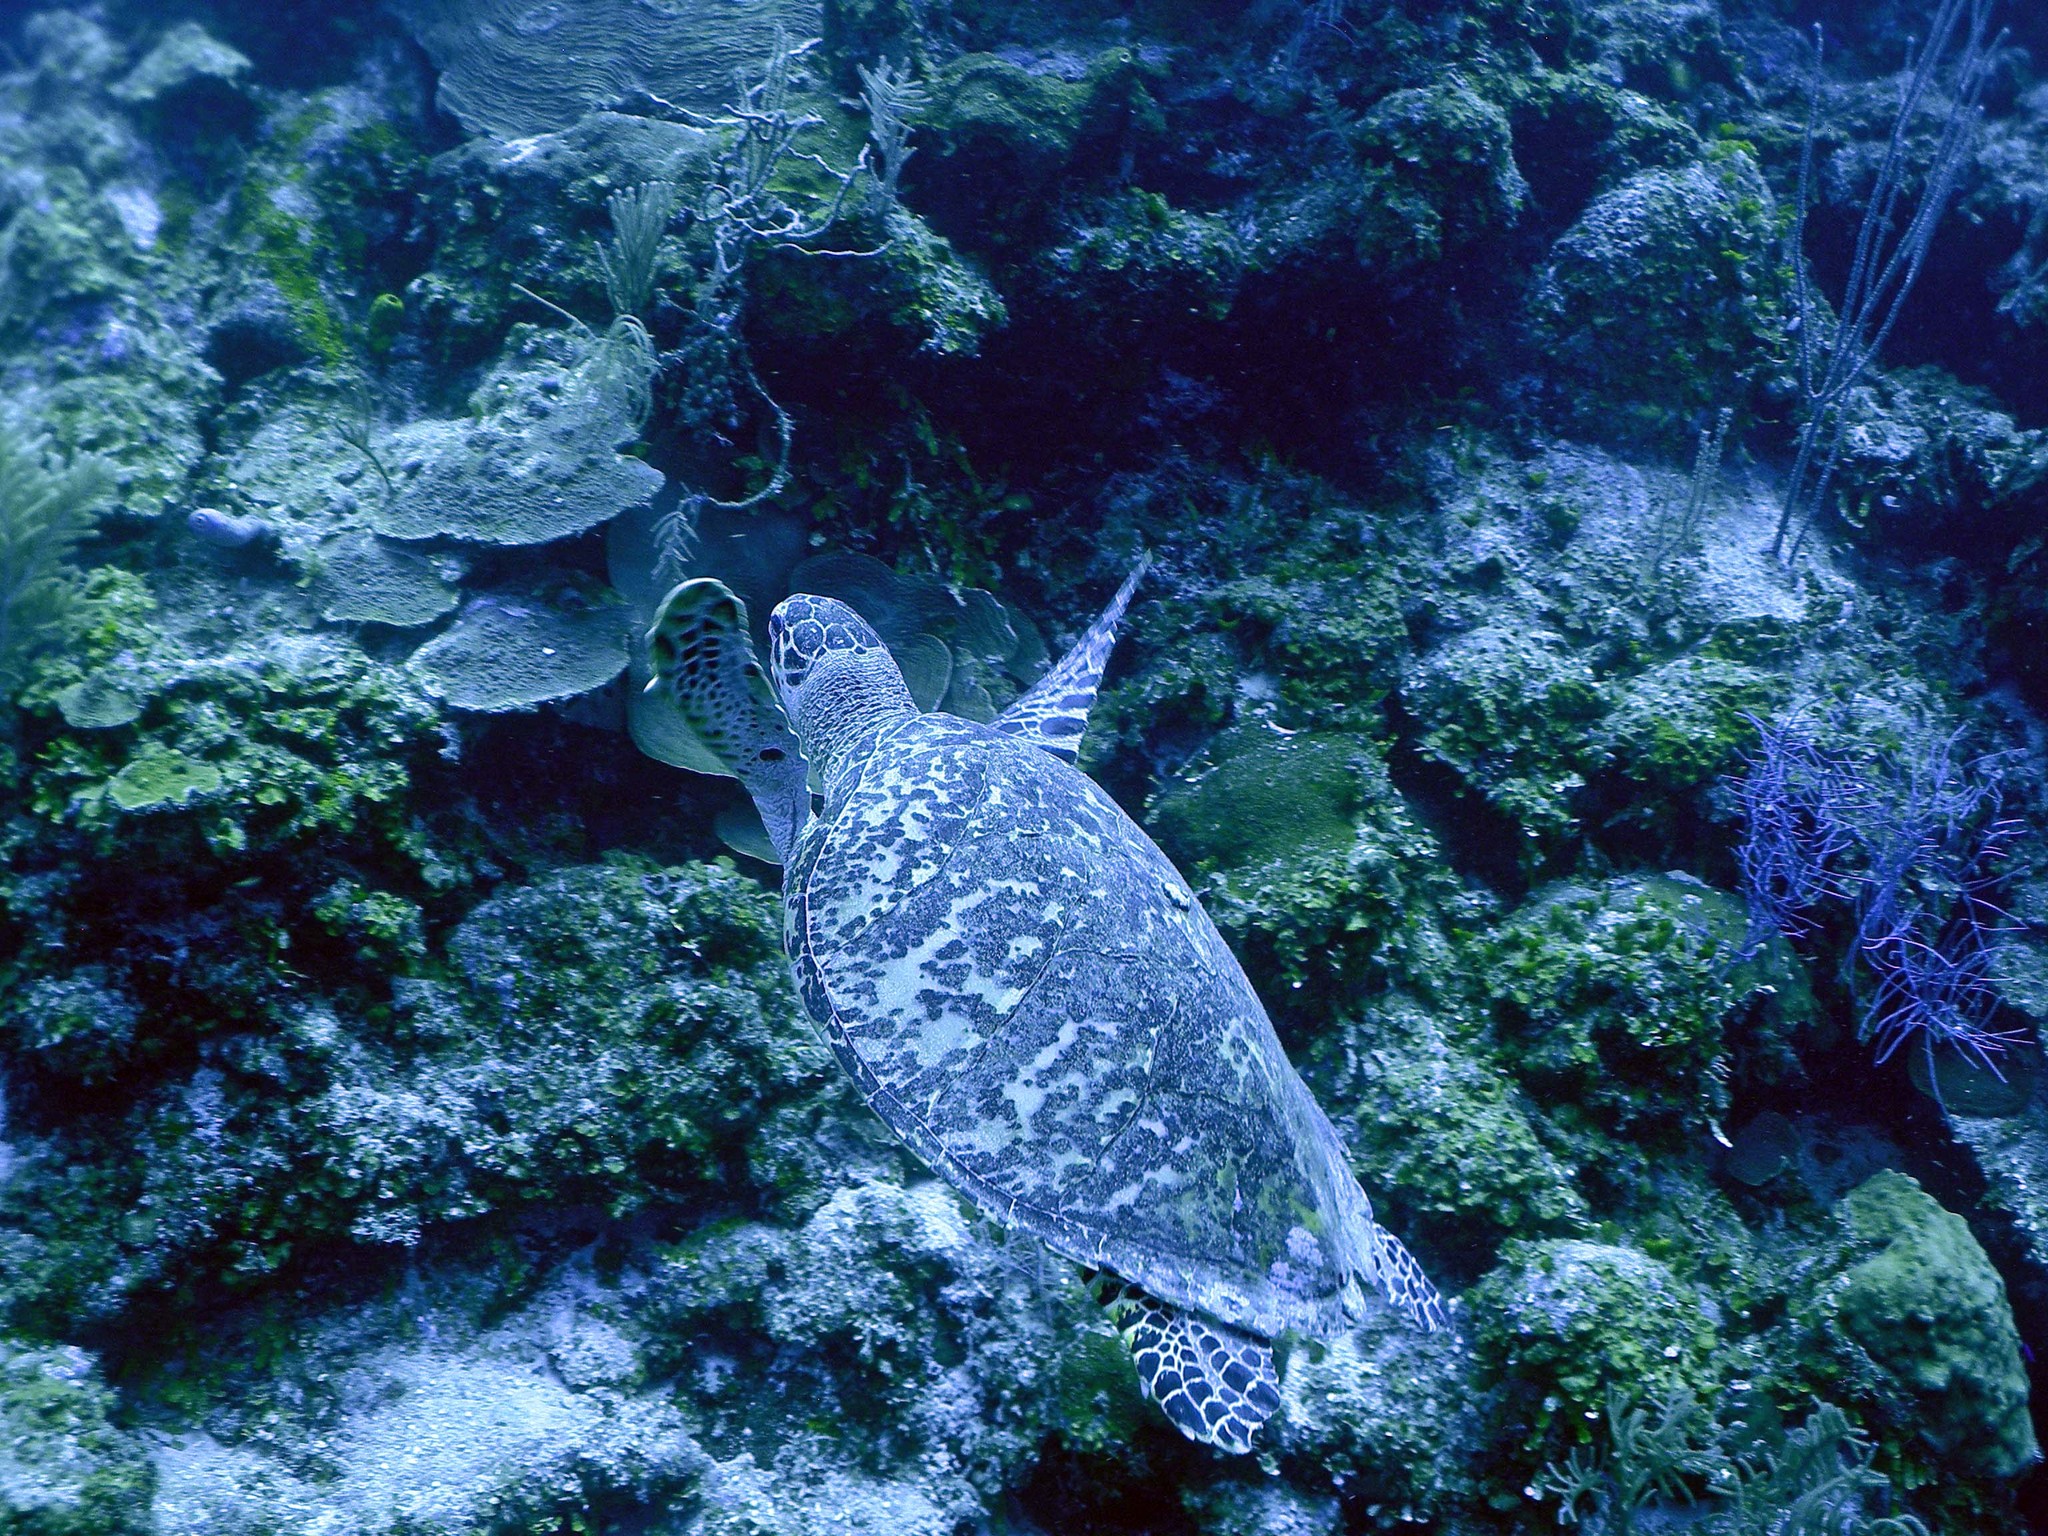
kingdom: Animalia
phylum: Chordata
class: Testudines
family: Cheloniidae
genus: Eretmochelys
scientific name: Eretmochelys imbricata
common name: Hawksbill turtle
